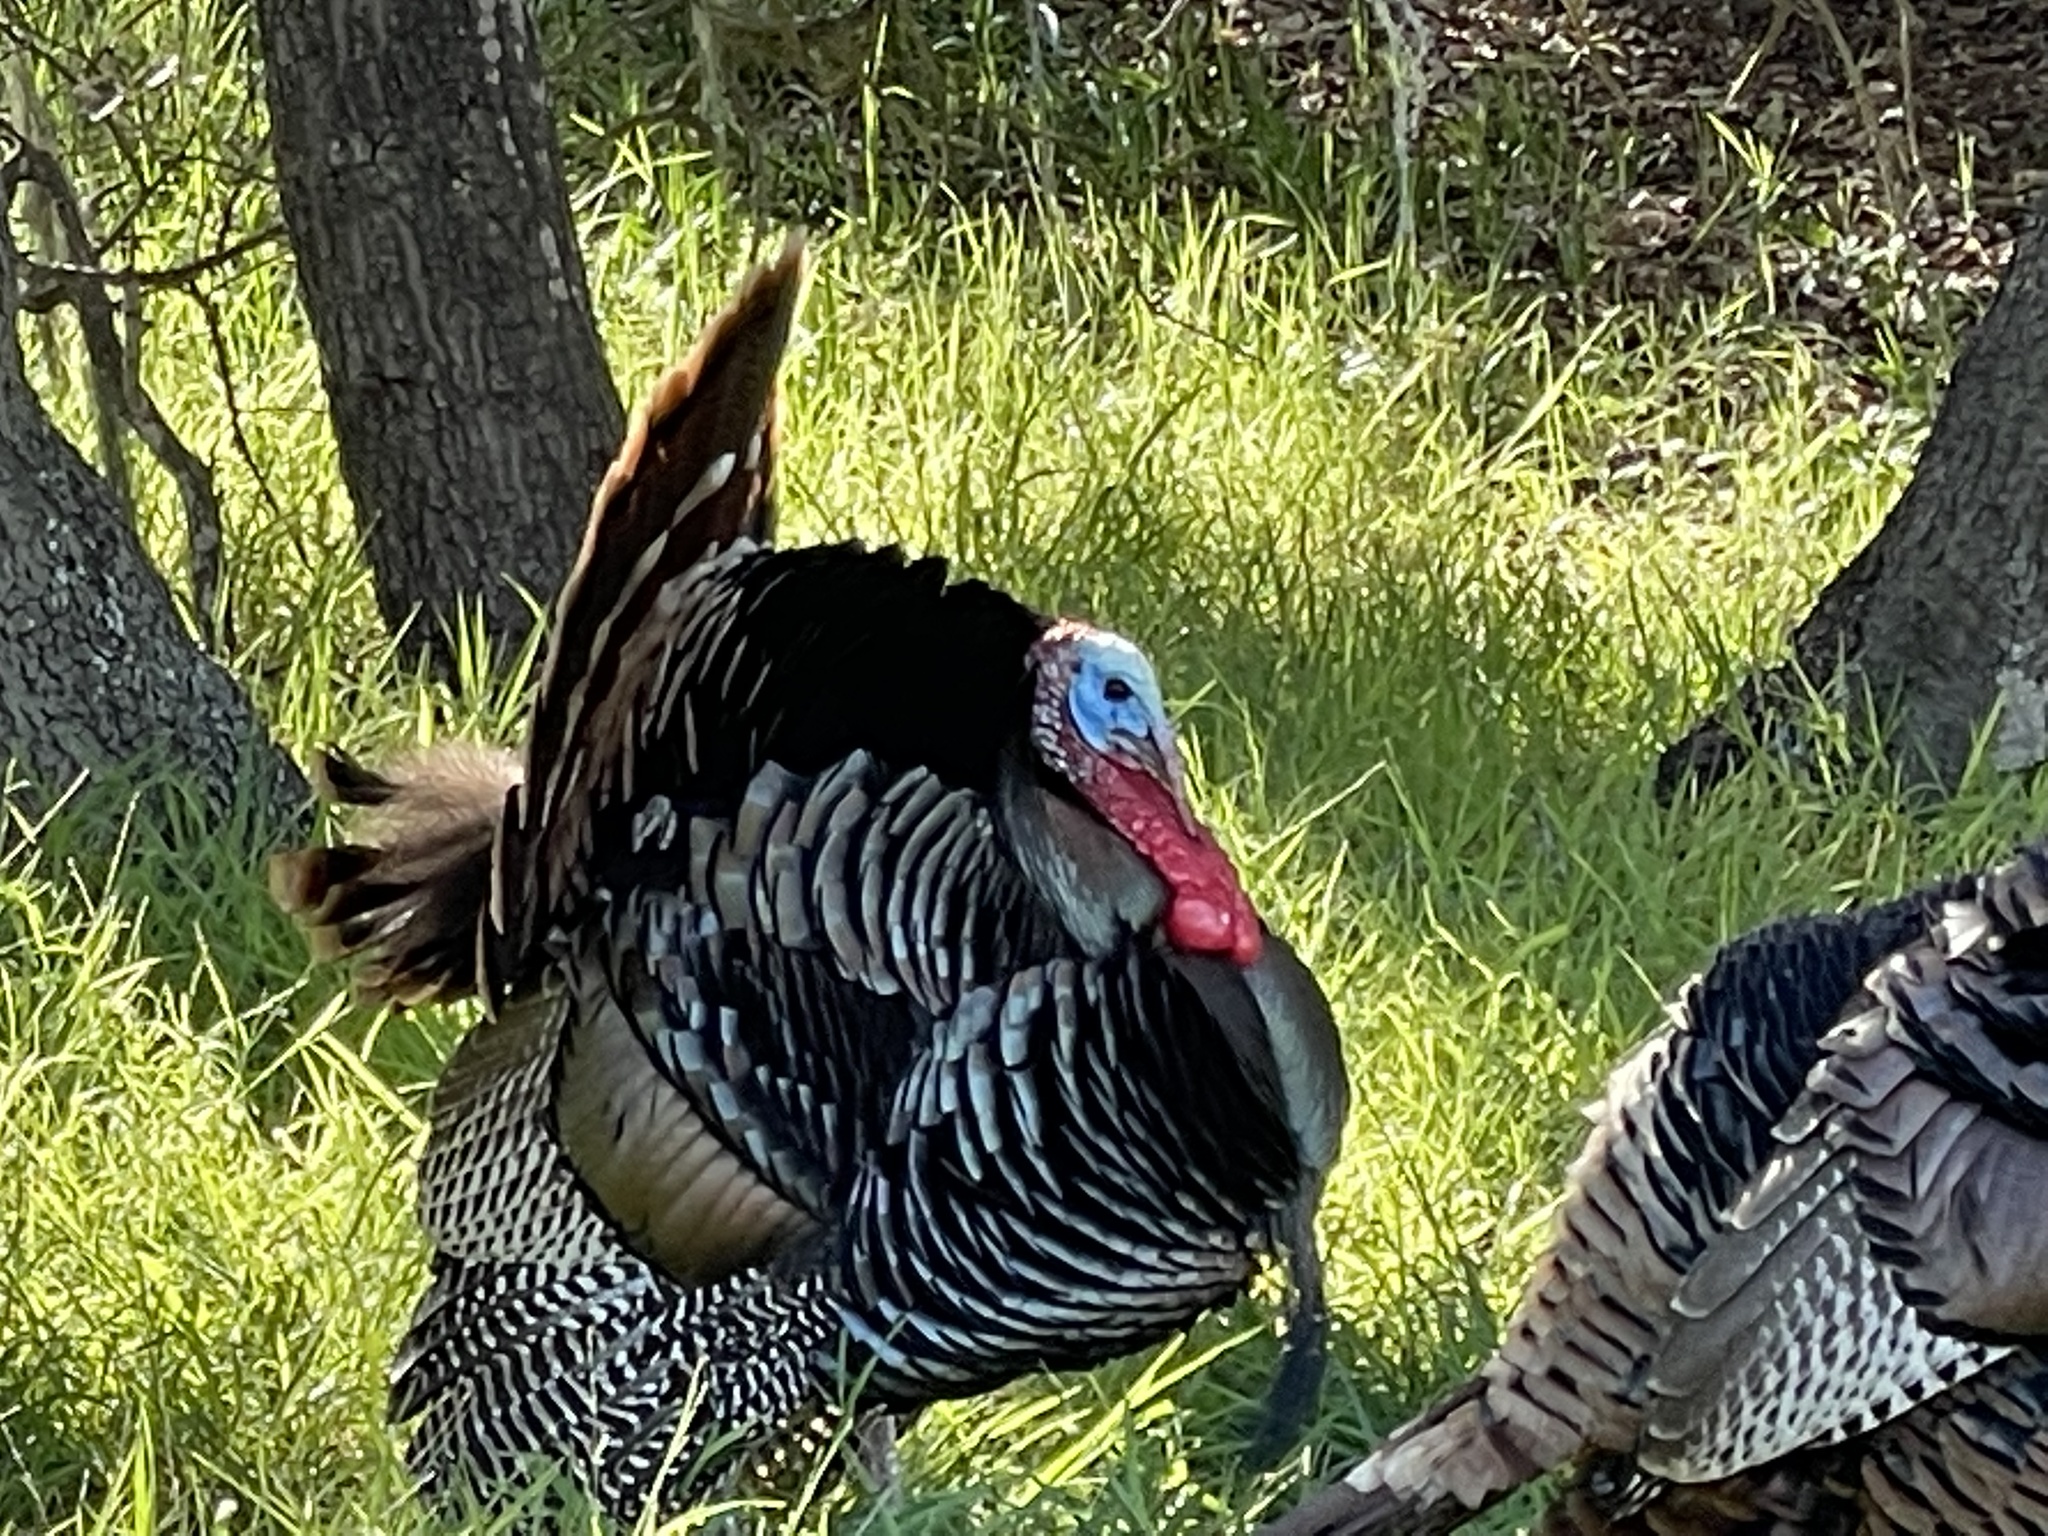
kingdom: Animalia
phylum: Chordata
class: Aves
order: Galliformes
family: Phasianidae
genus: Meleagris
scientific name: Meleagris gallopavo
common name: Wild turkey
